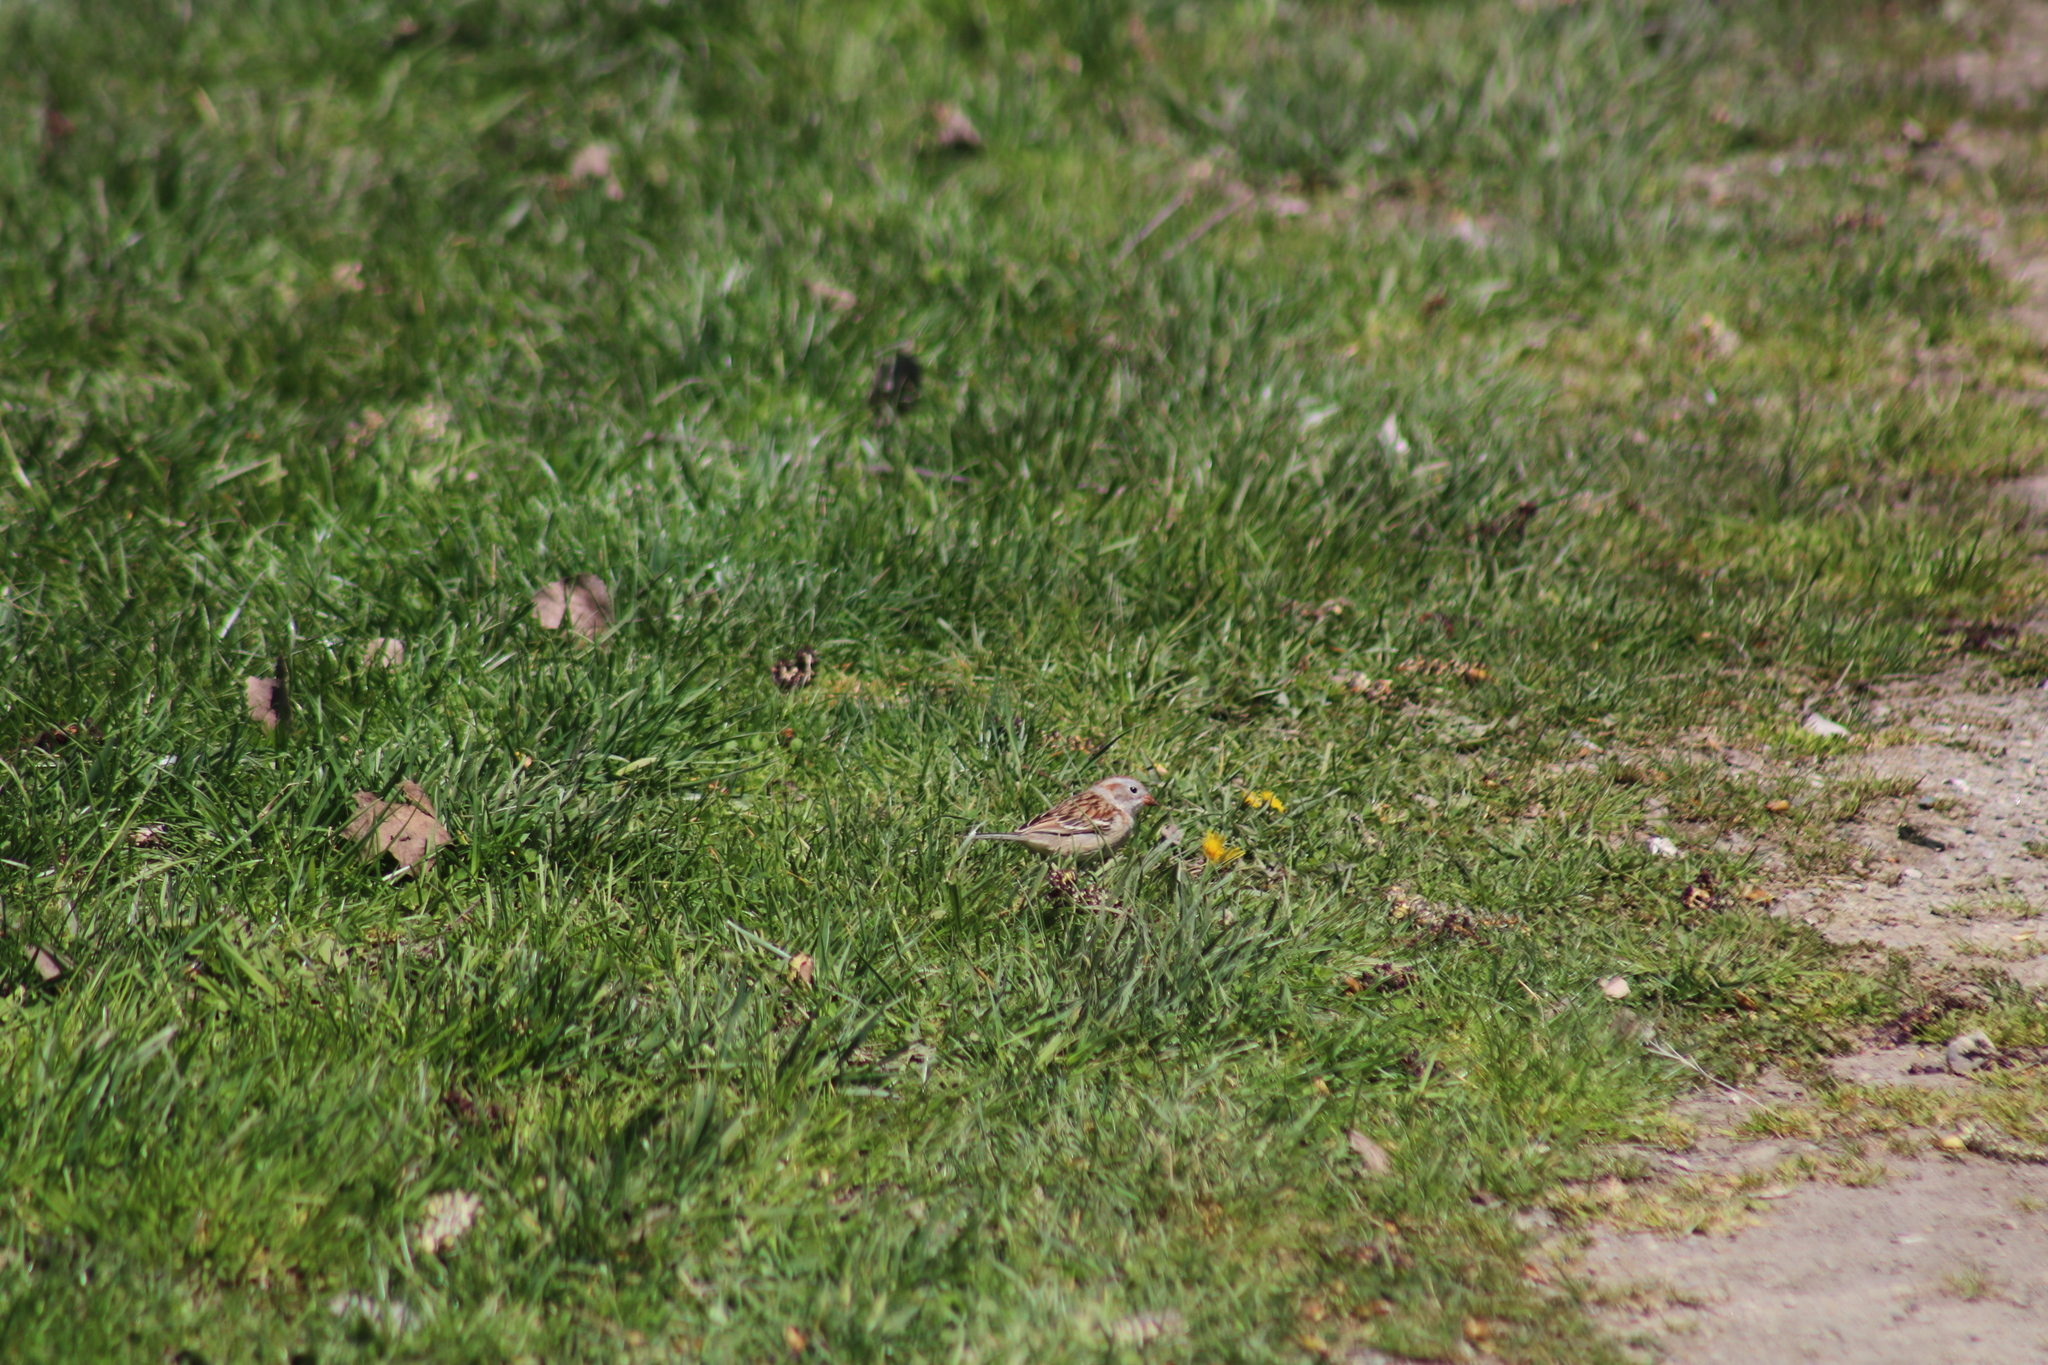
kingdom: Animalia
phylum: Chordata
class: Aves
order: Passeriformes
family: Passerellidae
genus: Spizella
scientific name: Spizella pusilla
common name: Field sparrow
